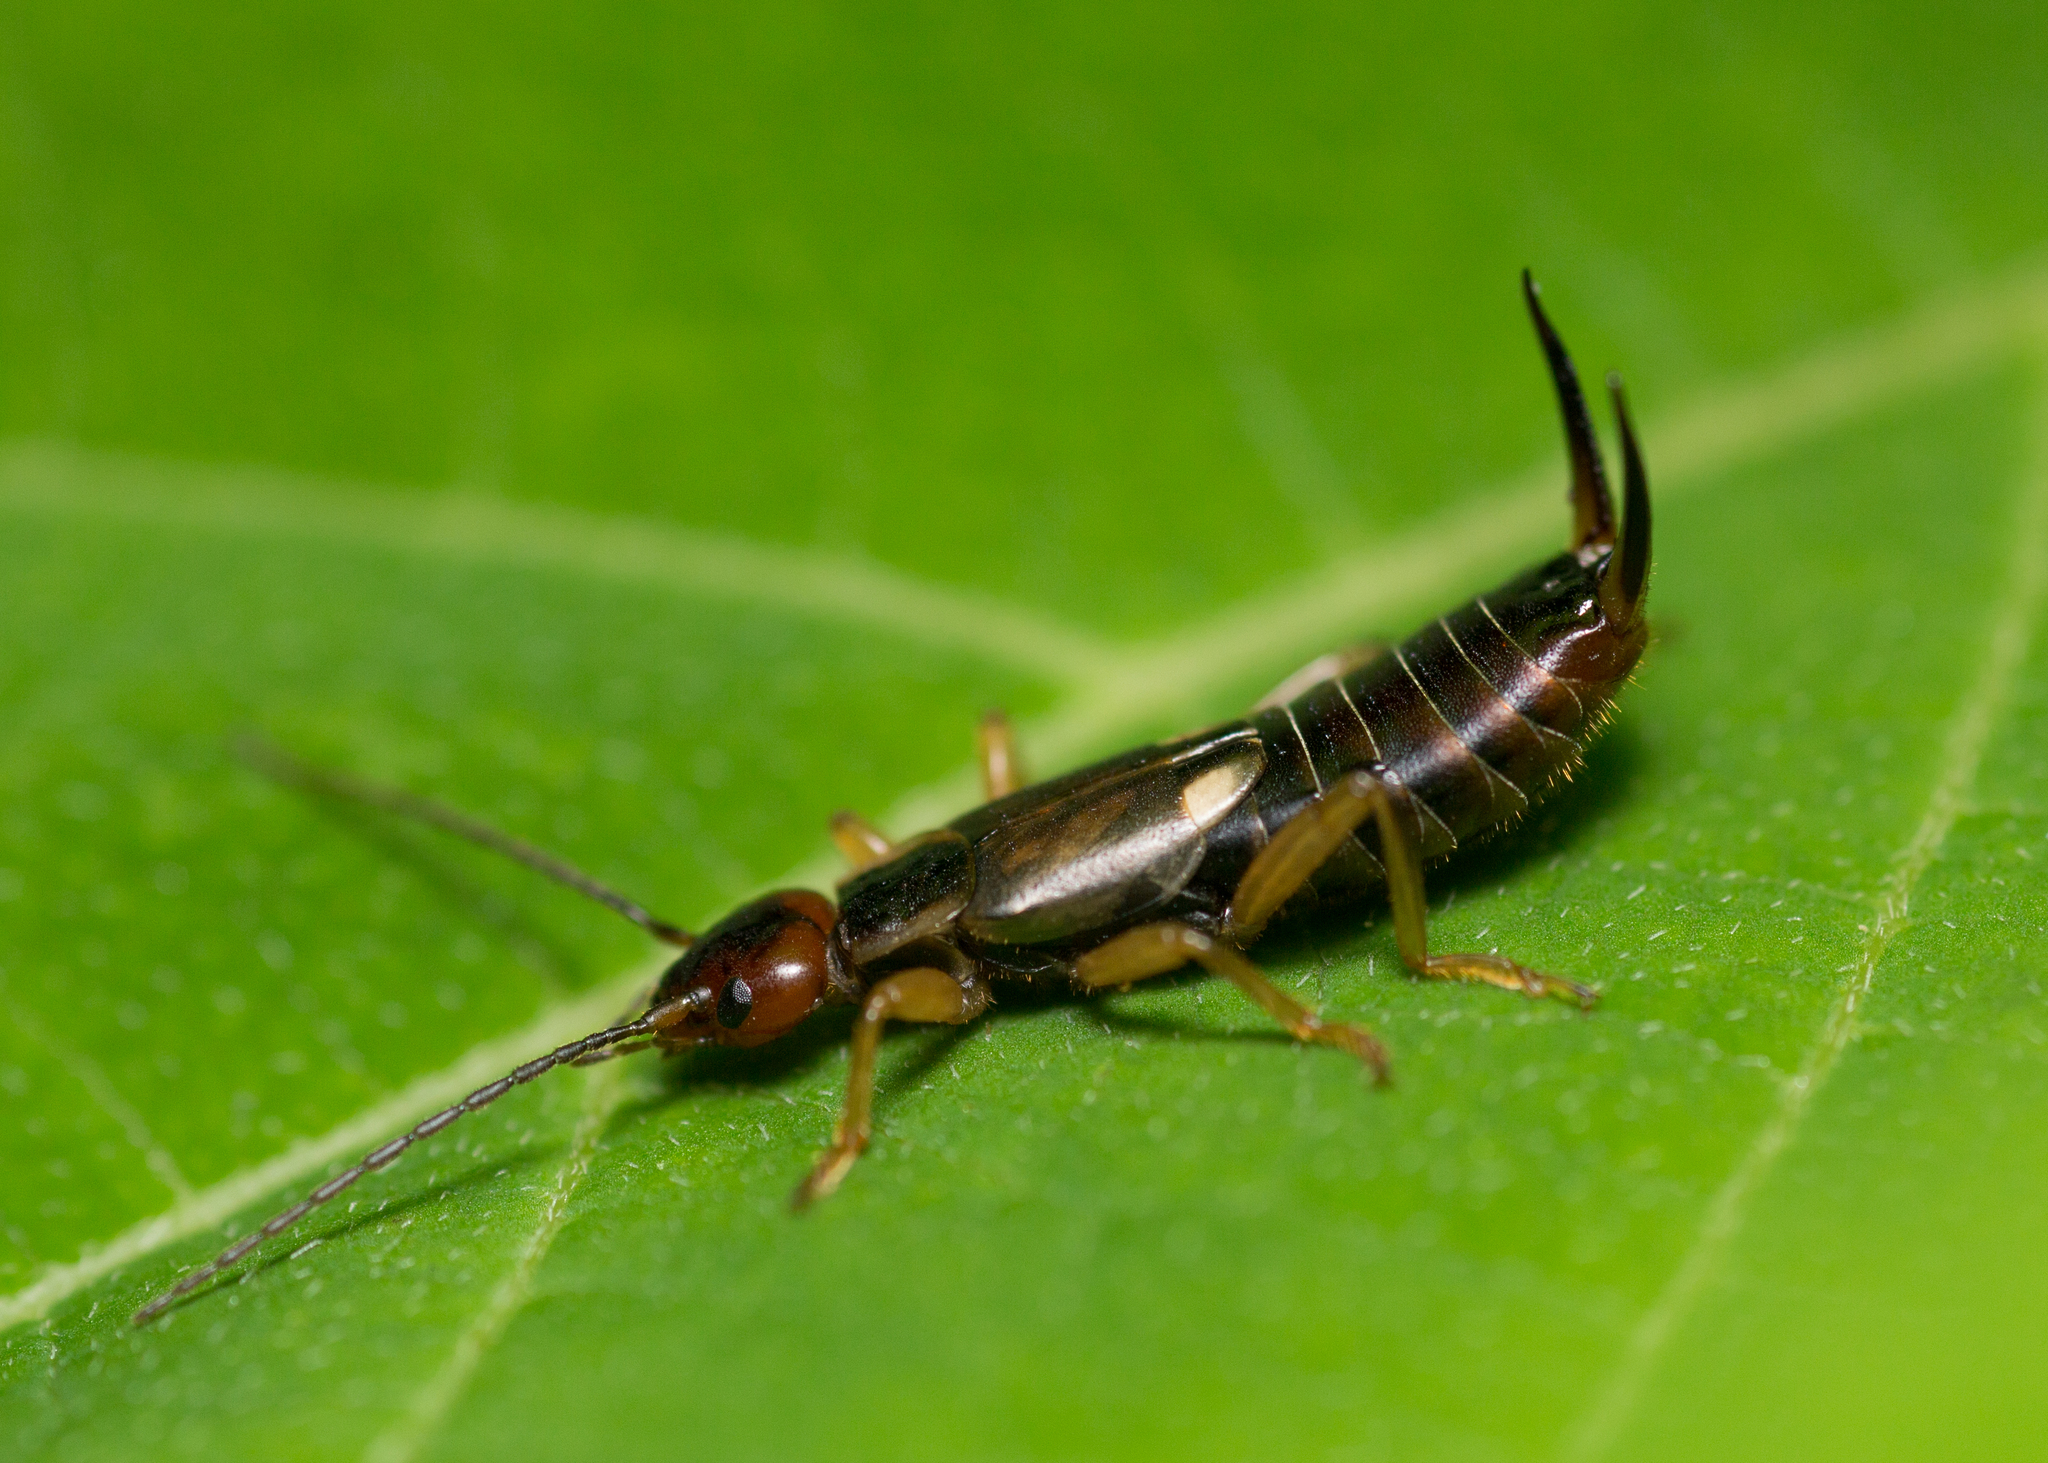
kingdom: Animalia
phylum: Arthropoda
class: Insecta
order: Dermaptera
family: Forficulidae
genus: Forficula
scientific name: Forficula auricularia
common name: European earwig
